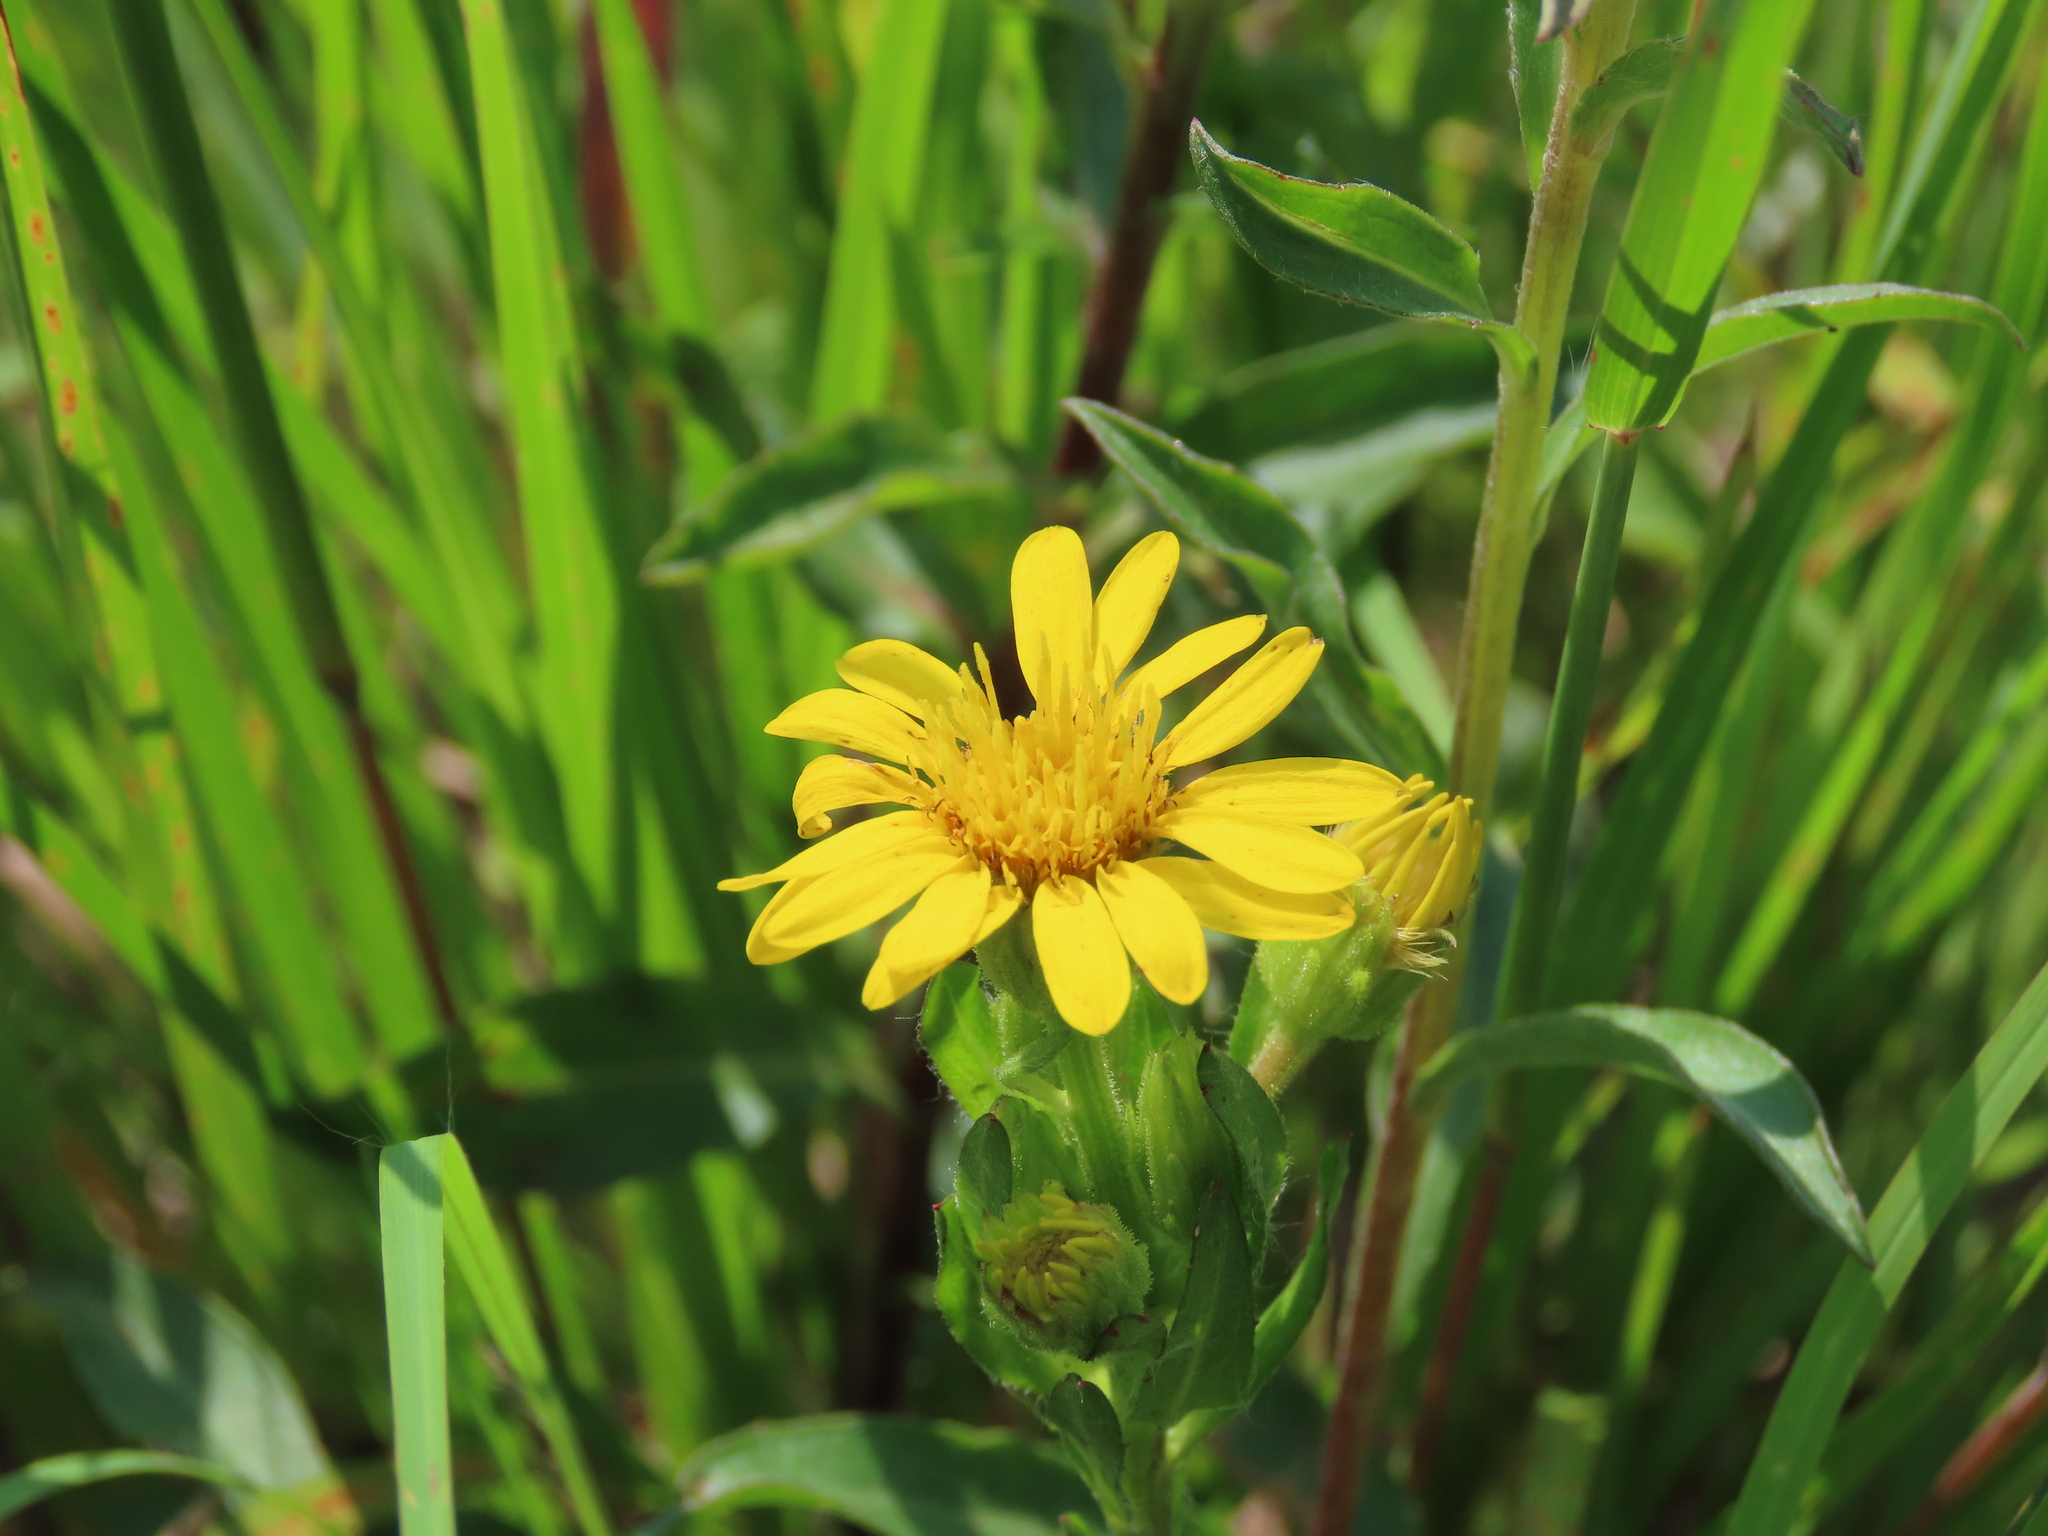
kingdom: Plantae
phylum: Tracheophyta
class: Magnoliopsida
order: Asterales
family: Asteraceae
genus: Chrysopsis
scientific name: Chrysopsis mariana
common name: Maryland golden-aster
